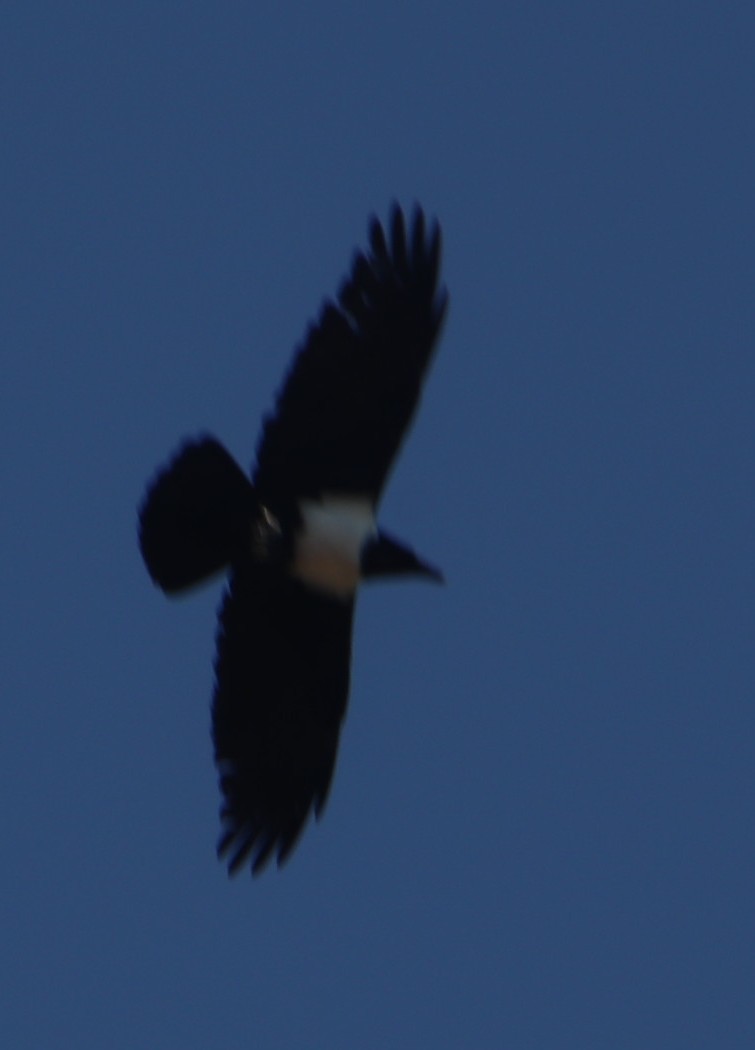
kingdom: Animalia
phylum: Chordata
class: Aves
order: Passeriformes
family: Corvidae
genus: Corvus
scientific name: Corvus albus
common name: Pied crow
